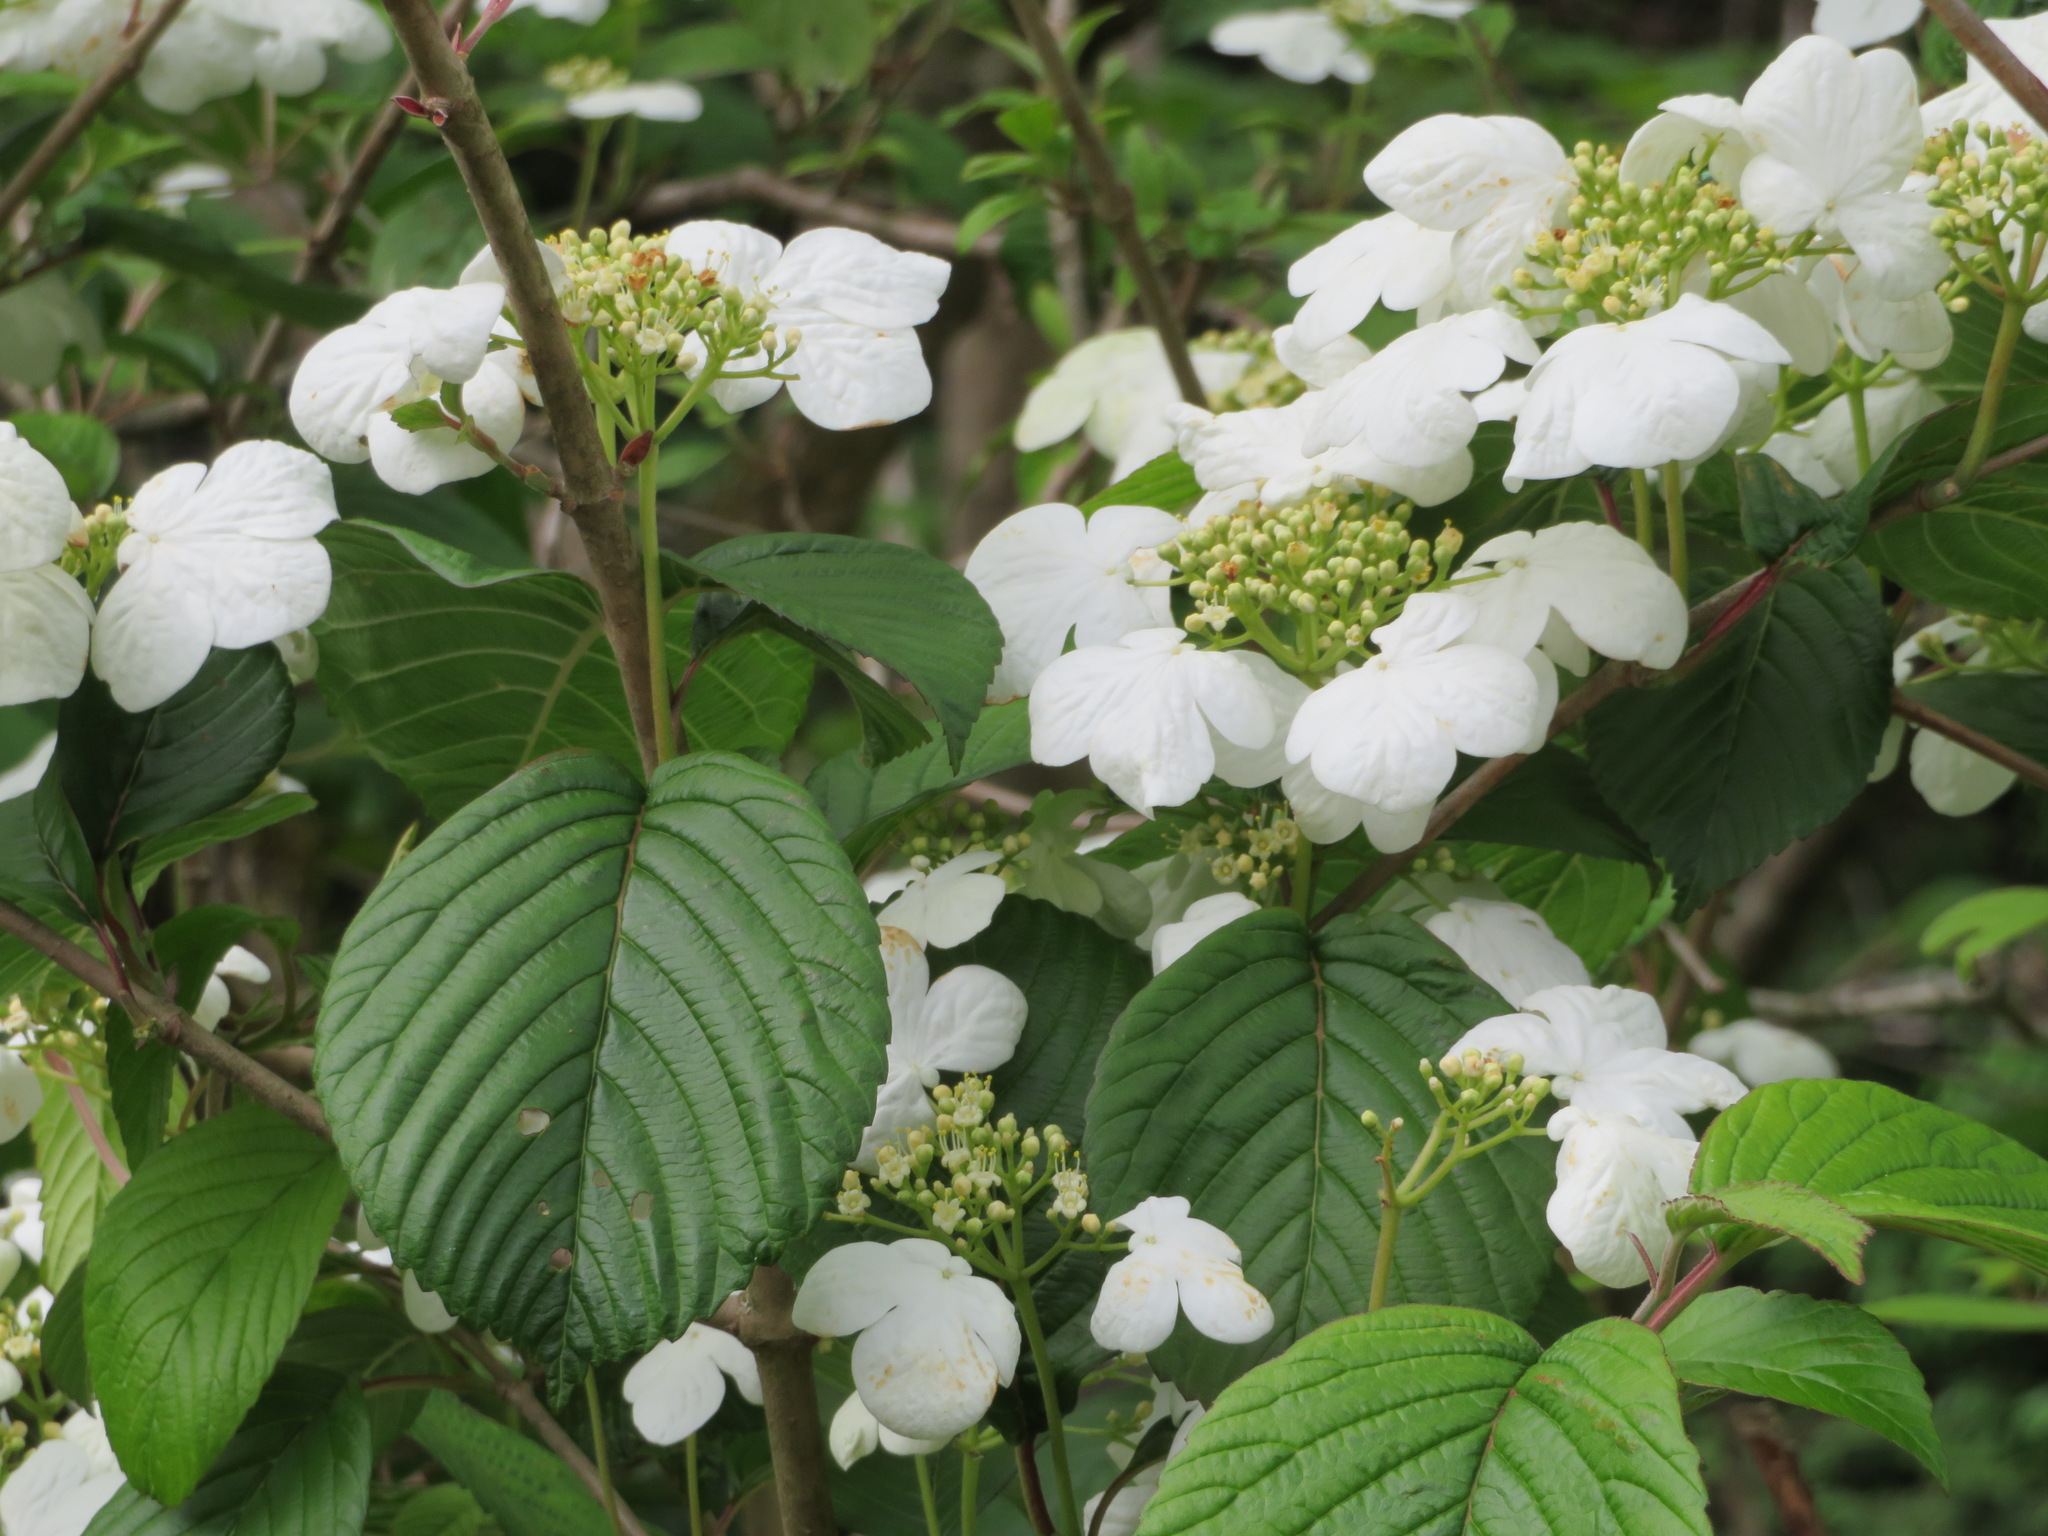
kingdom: Plantae
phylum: Tracheophyta
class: Magnoliopsida
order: Dipsacales
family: Viburnaceae
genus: Viburnum
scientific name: Viburnum plicatum
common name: Japanese snowball
